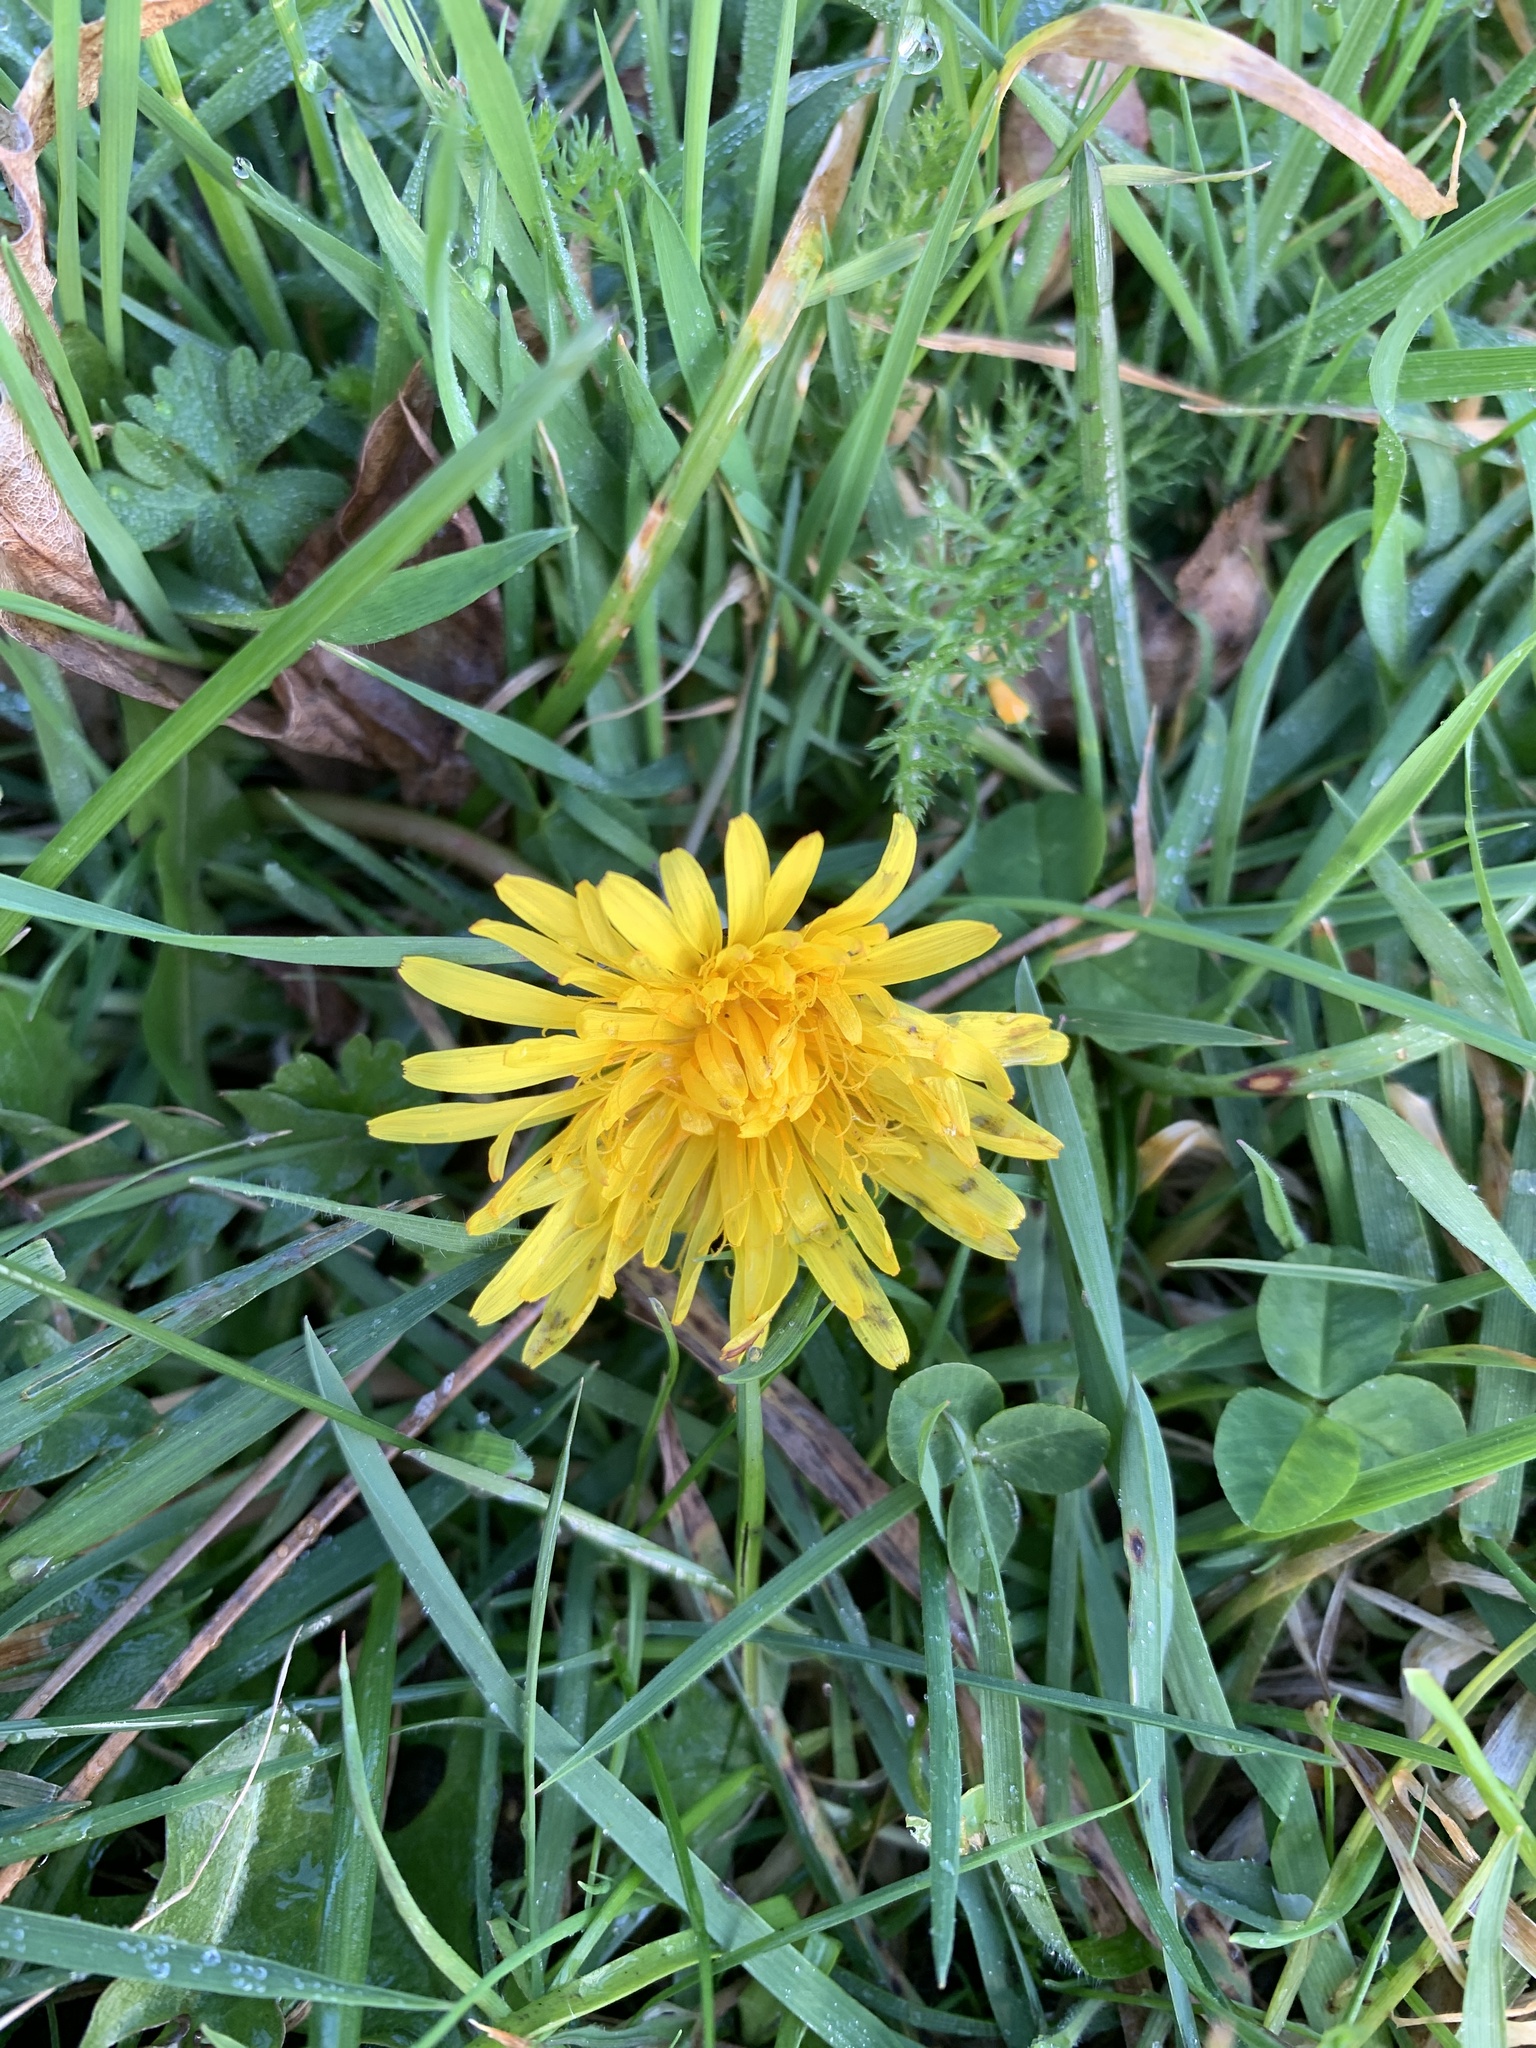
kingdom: Plantae
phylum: Tracheophyta
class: Magnoliopsida
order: Asterales
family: Asteraceae
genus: Taraxacum
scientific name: Taraxacum officinale
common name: Common dandelion
